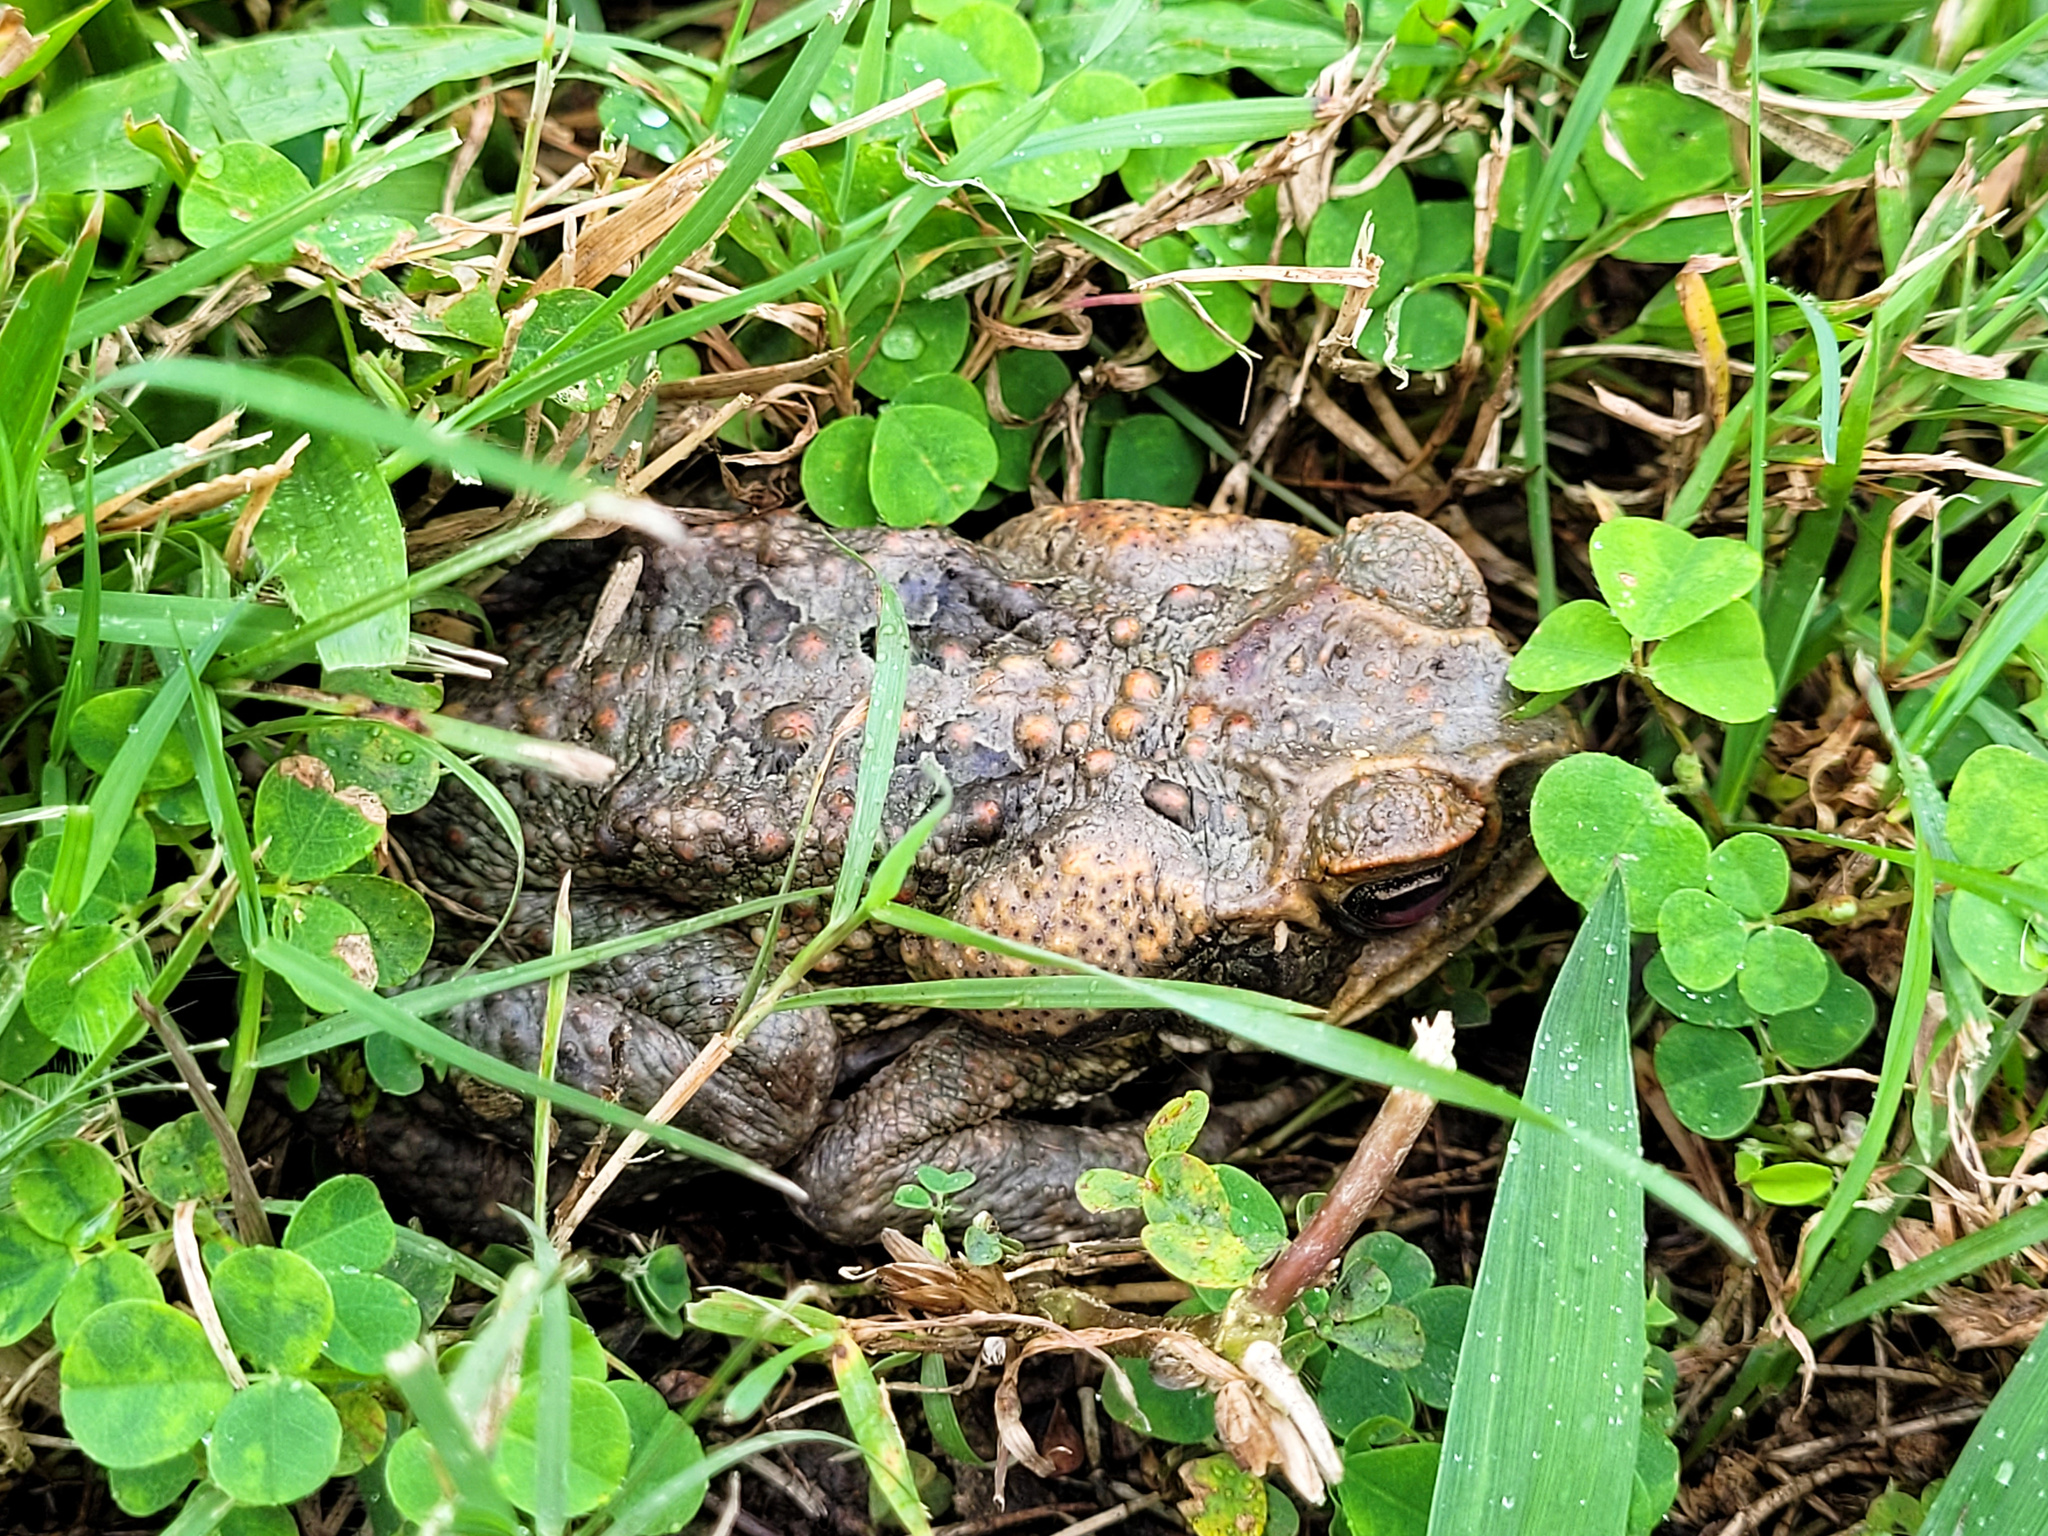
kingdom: Animalia
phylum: Chordata
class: Amphibia
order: Anura
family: Bufonidae
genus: Rhinella
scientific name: Rhinella marina
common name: Cane toad
